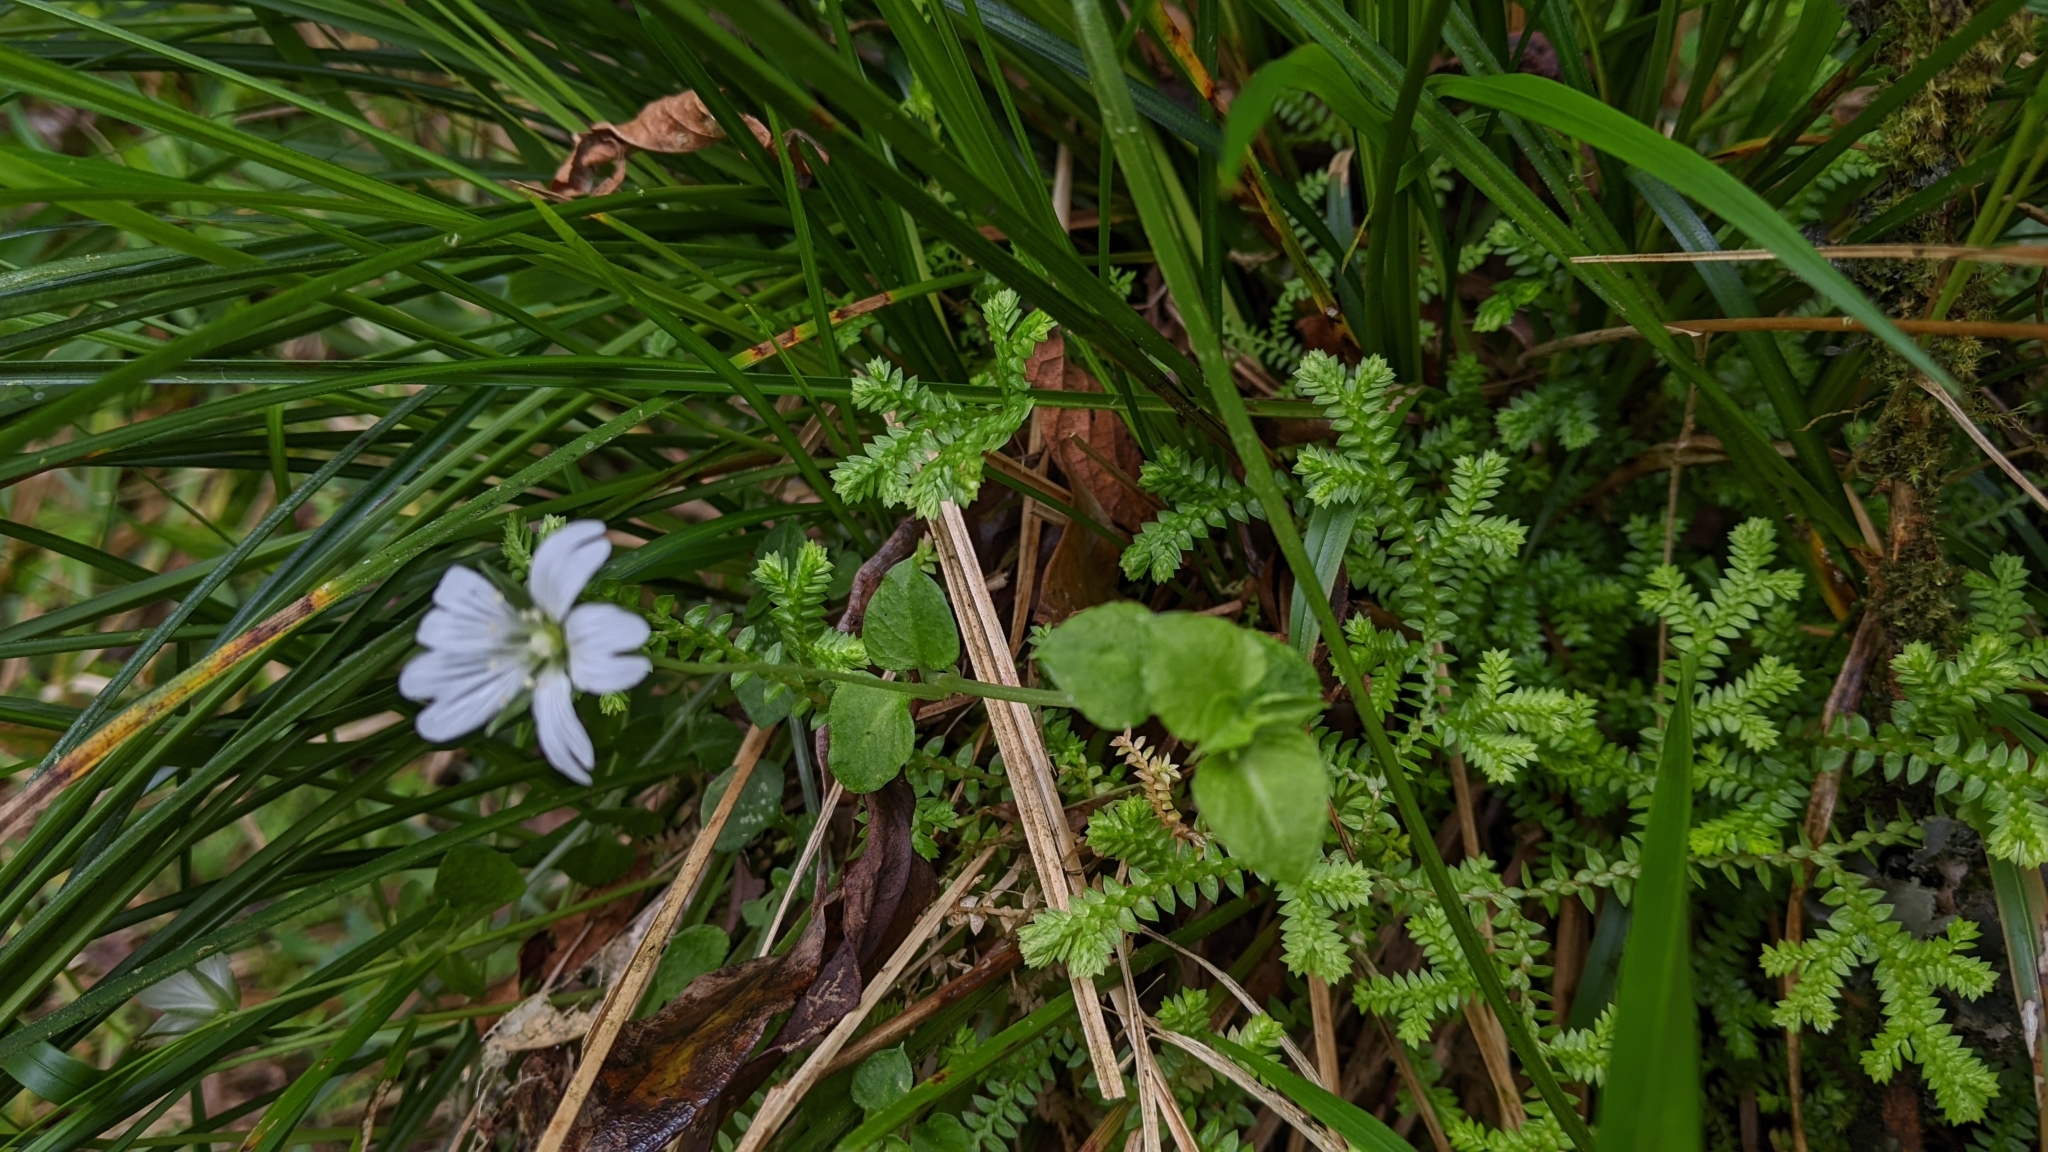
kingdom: Plantae
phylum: Tracheophyta
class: Magnoliopsida
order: Caryophyllales
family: Caryophyllaceae
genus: Nubelaria
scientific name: Nubelaria arisanensis
